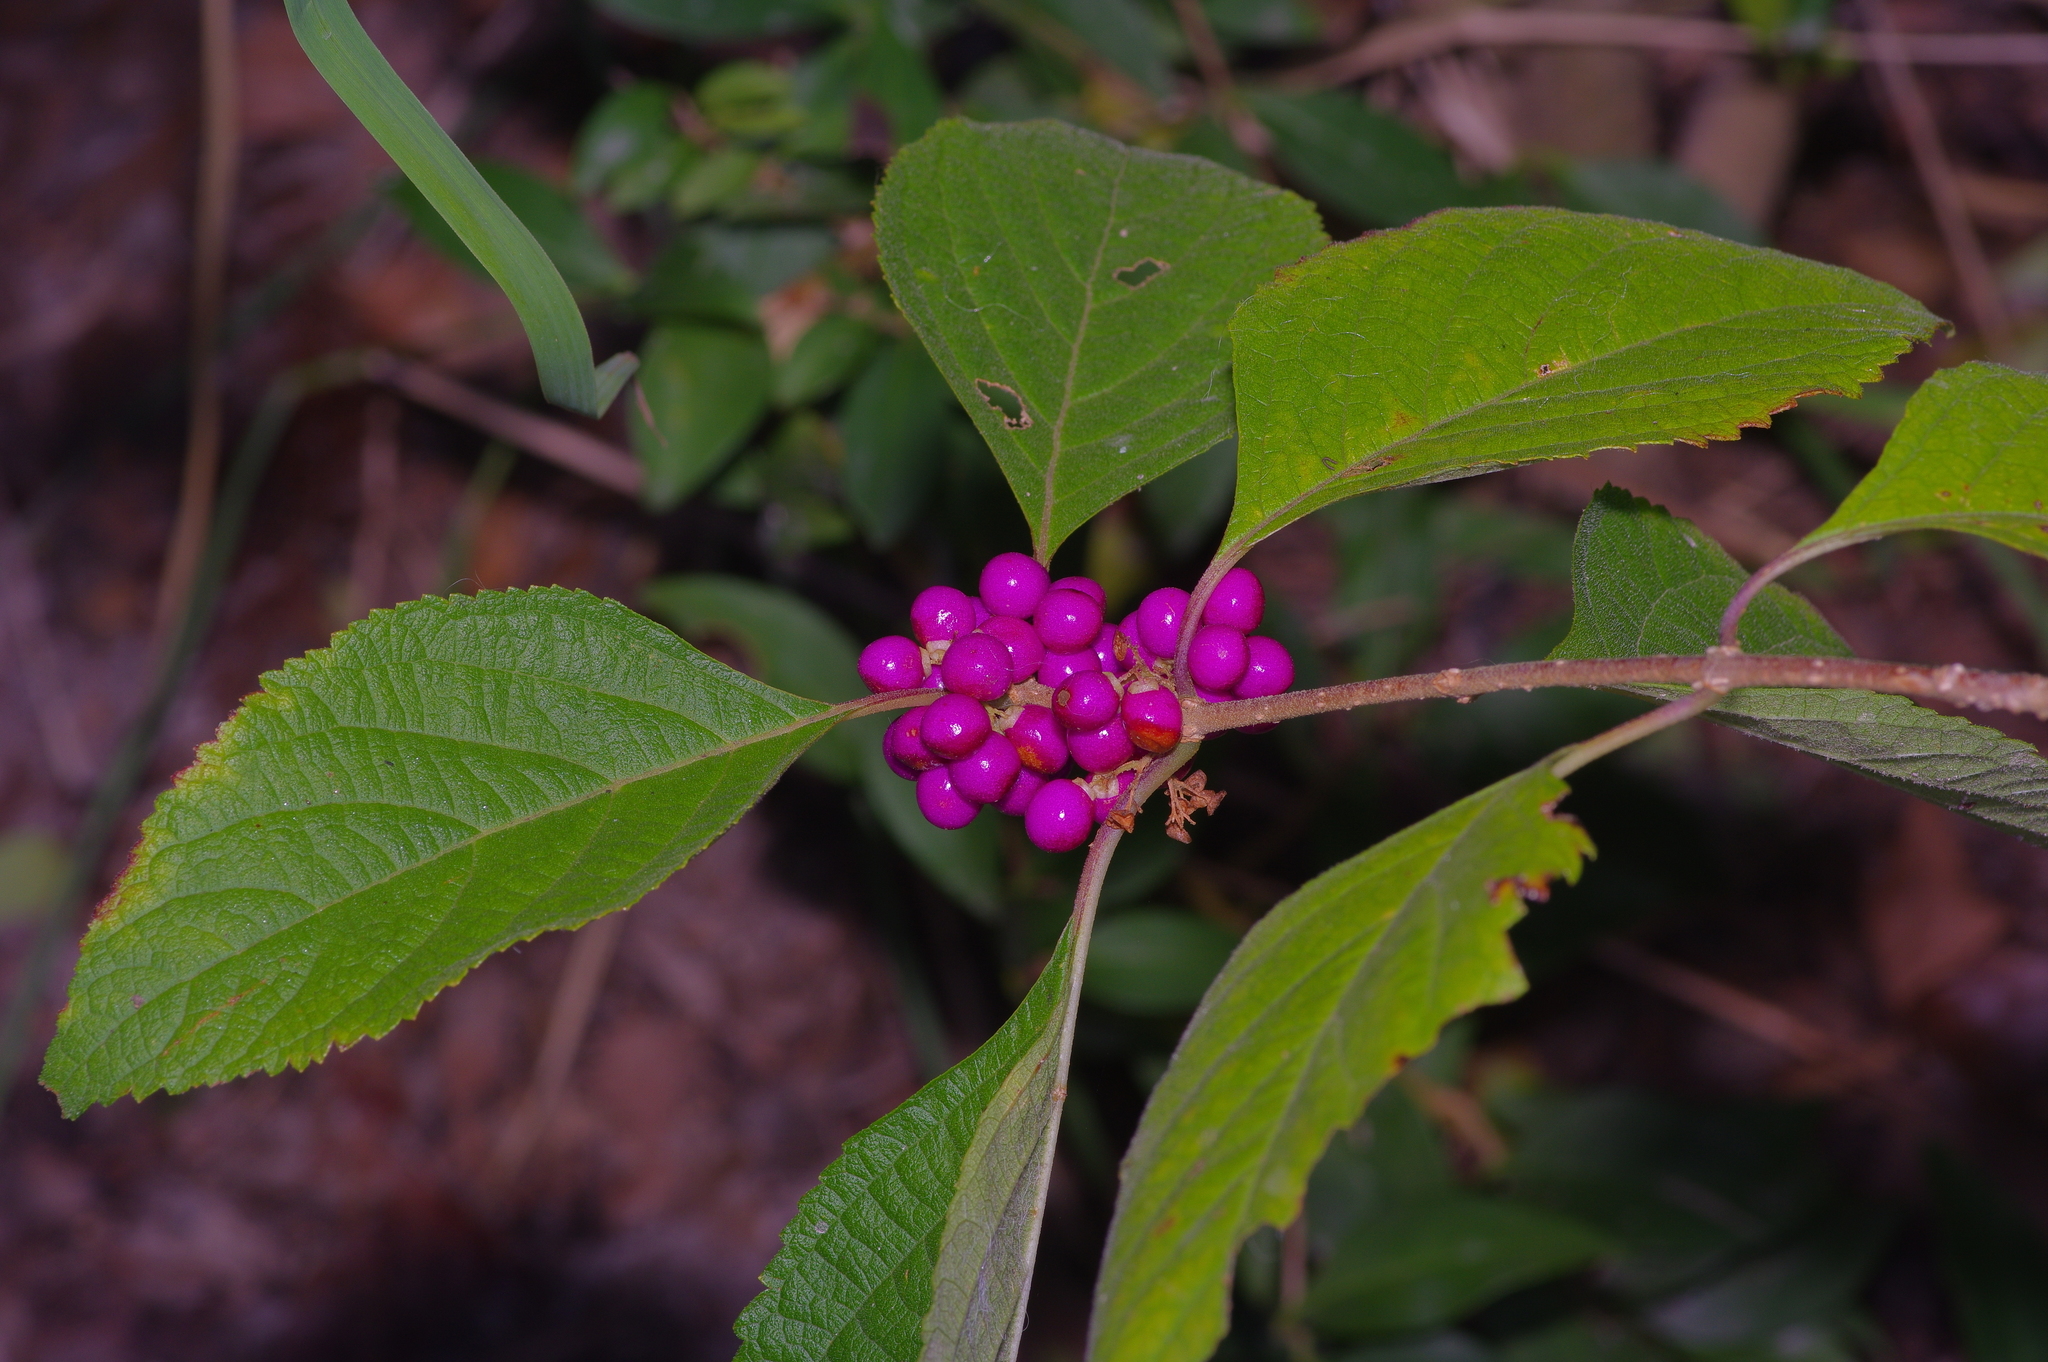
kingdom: Plantae
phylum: Tracheophyta
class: Magnoliopsida
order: Lamiales
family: Lamiaceae
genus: Callicarpa
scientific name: Callicarpa americana
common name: American beautyberry
